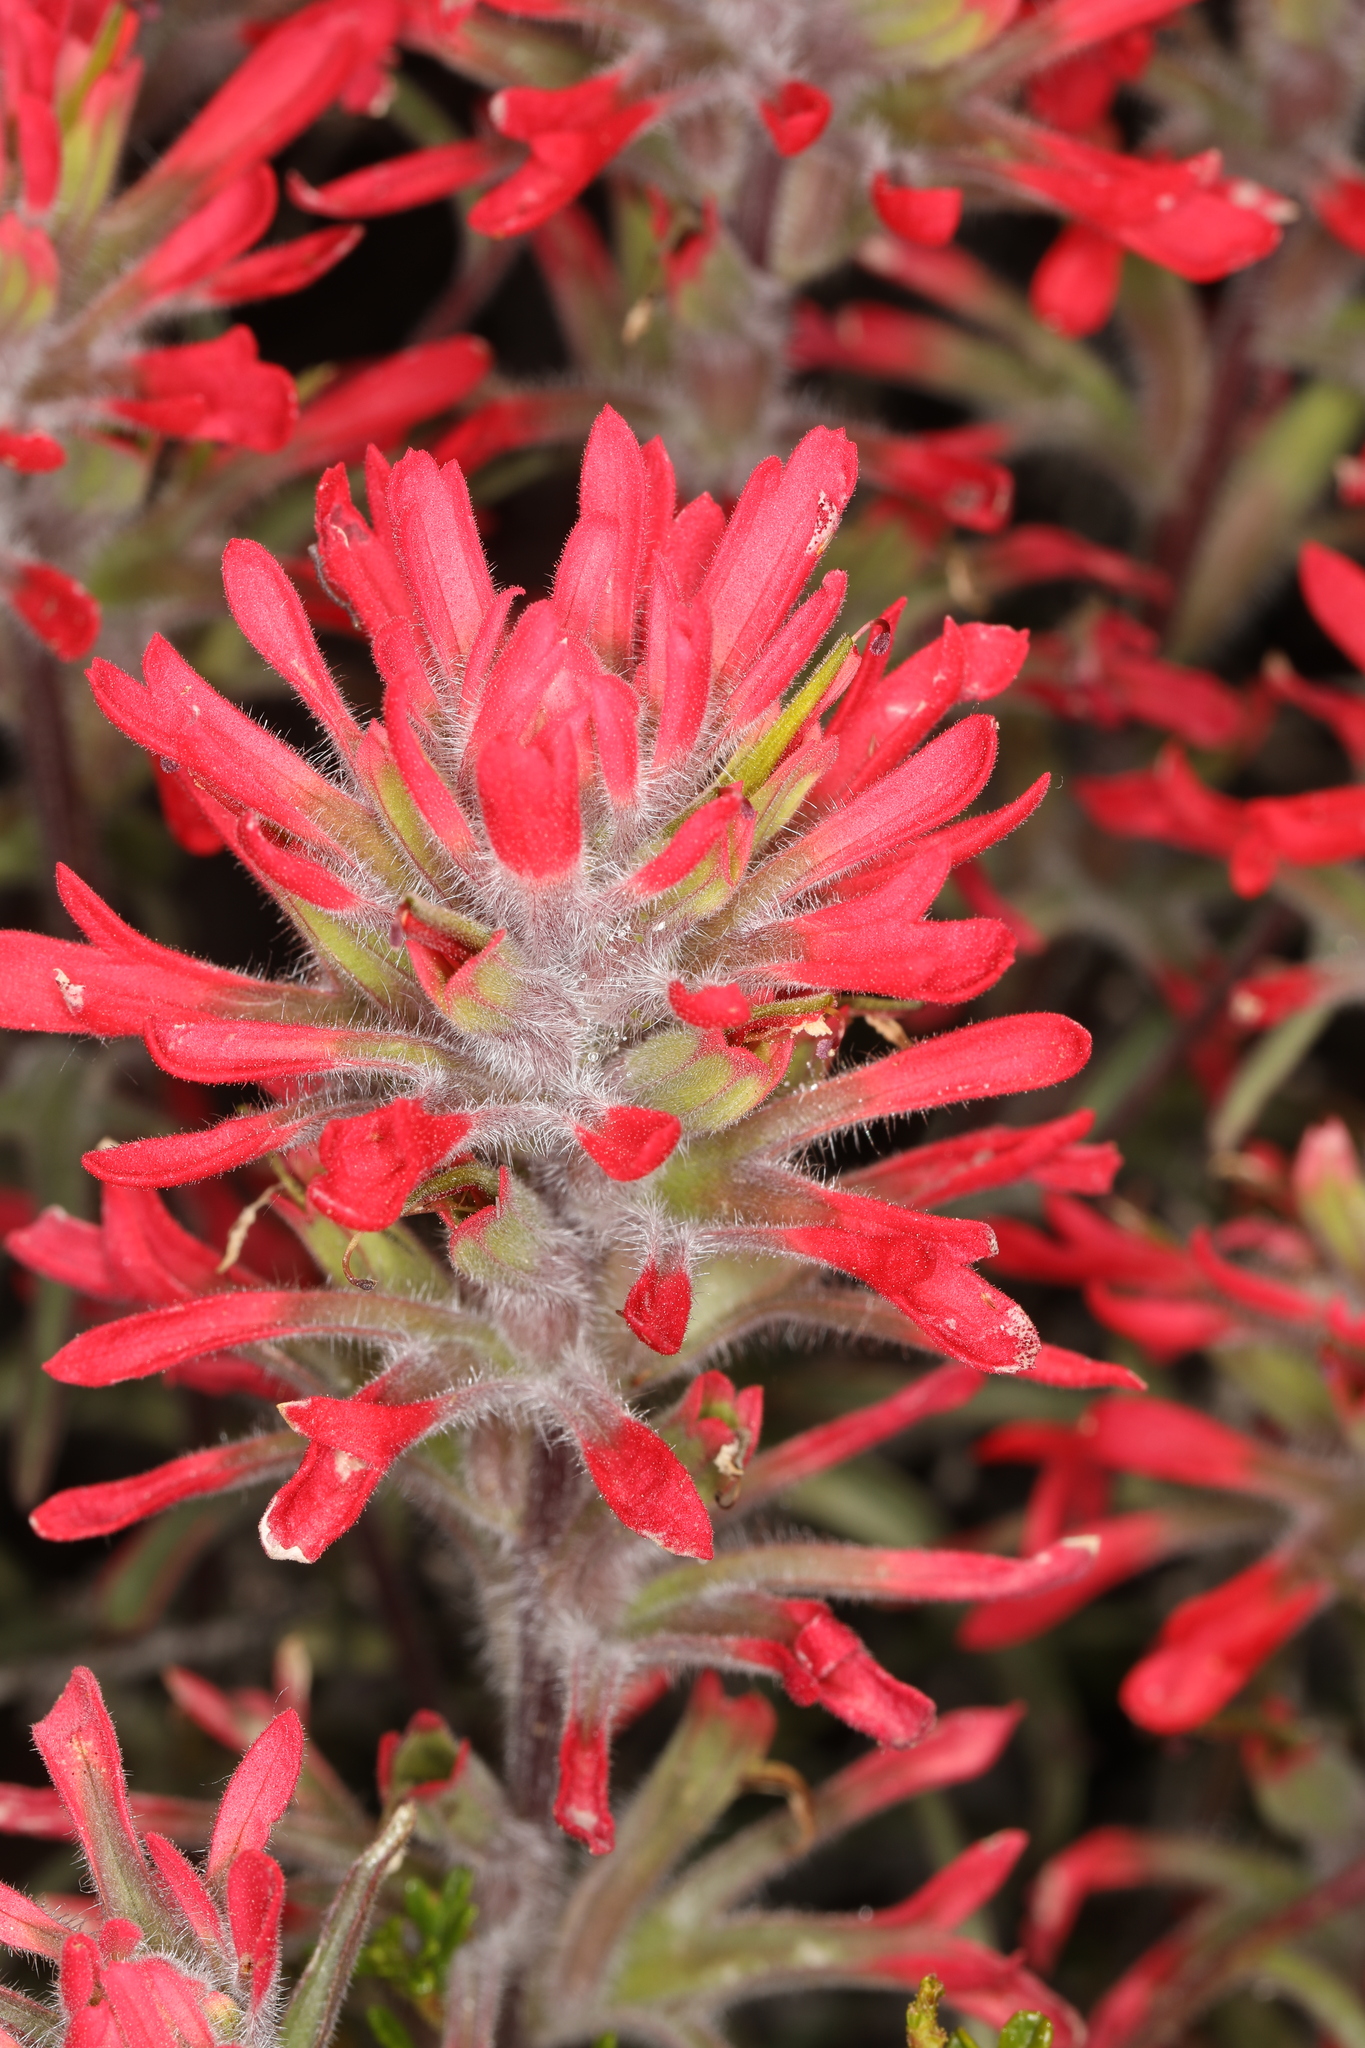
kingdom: Plantae
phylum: Tracheophyta
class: Magnoliopsida
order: Lamiales
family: Orobanchaceae
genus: Castilleja
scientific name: Castilleja chromosa
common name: Desert paintbrush
